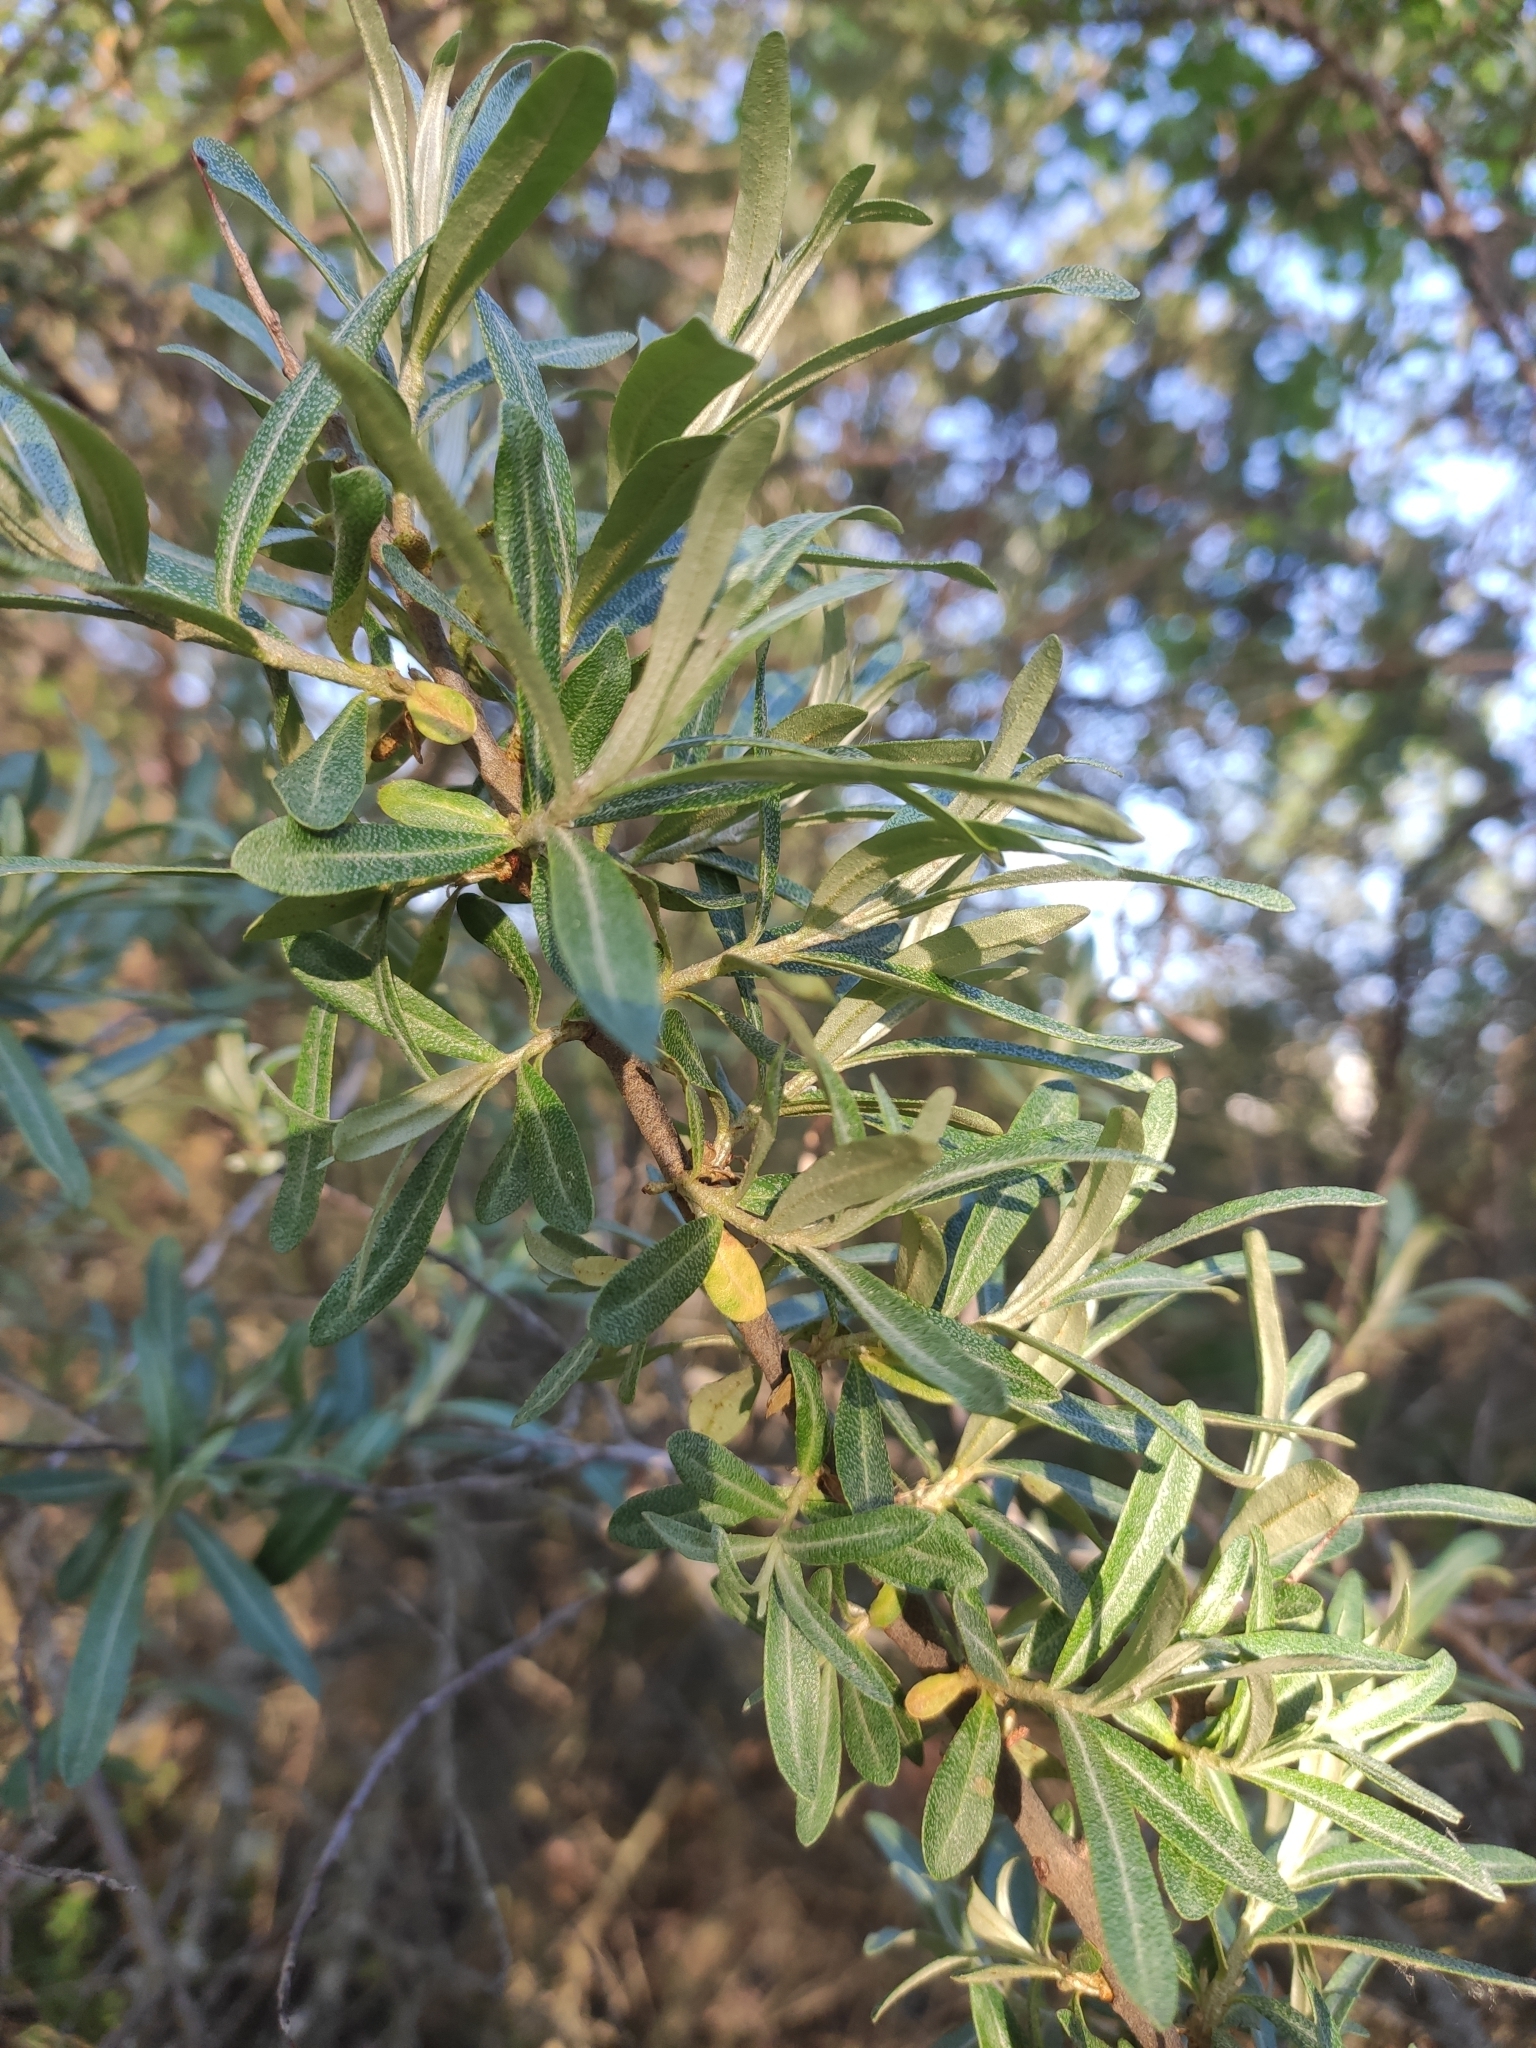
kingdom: Plantae
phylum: Tracheophyta
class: Magnoliopsida
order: Rosales
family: Elaeagnaceae
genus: Hippophae
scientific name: Hippophae rhamnoides
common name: Sea-buckthorn
